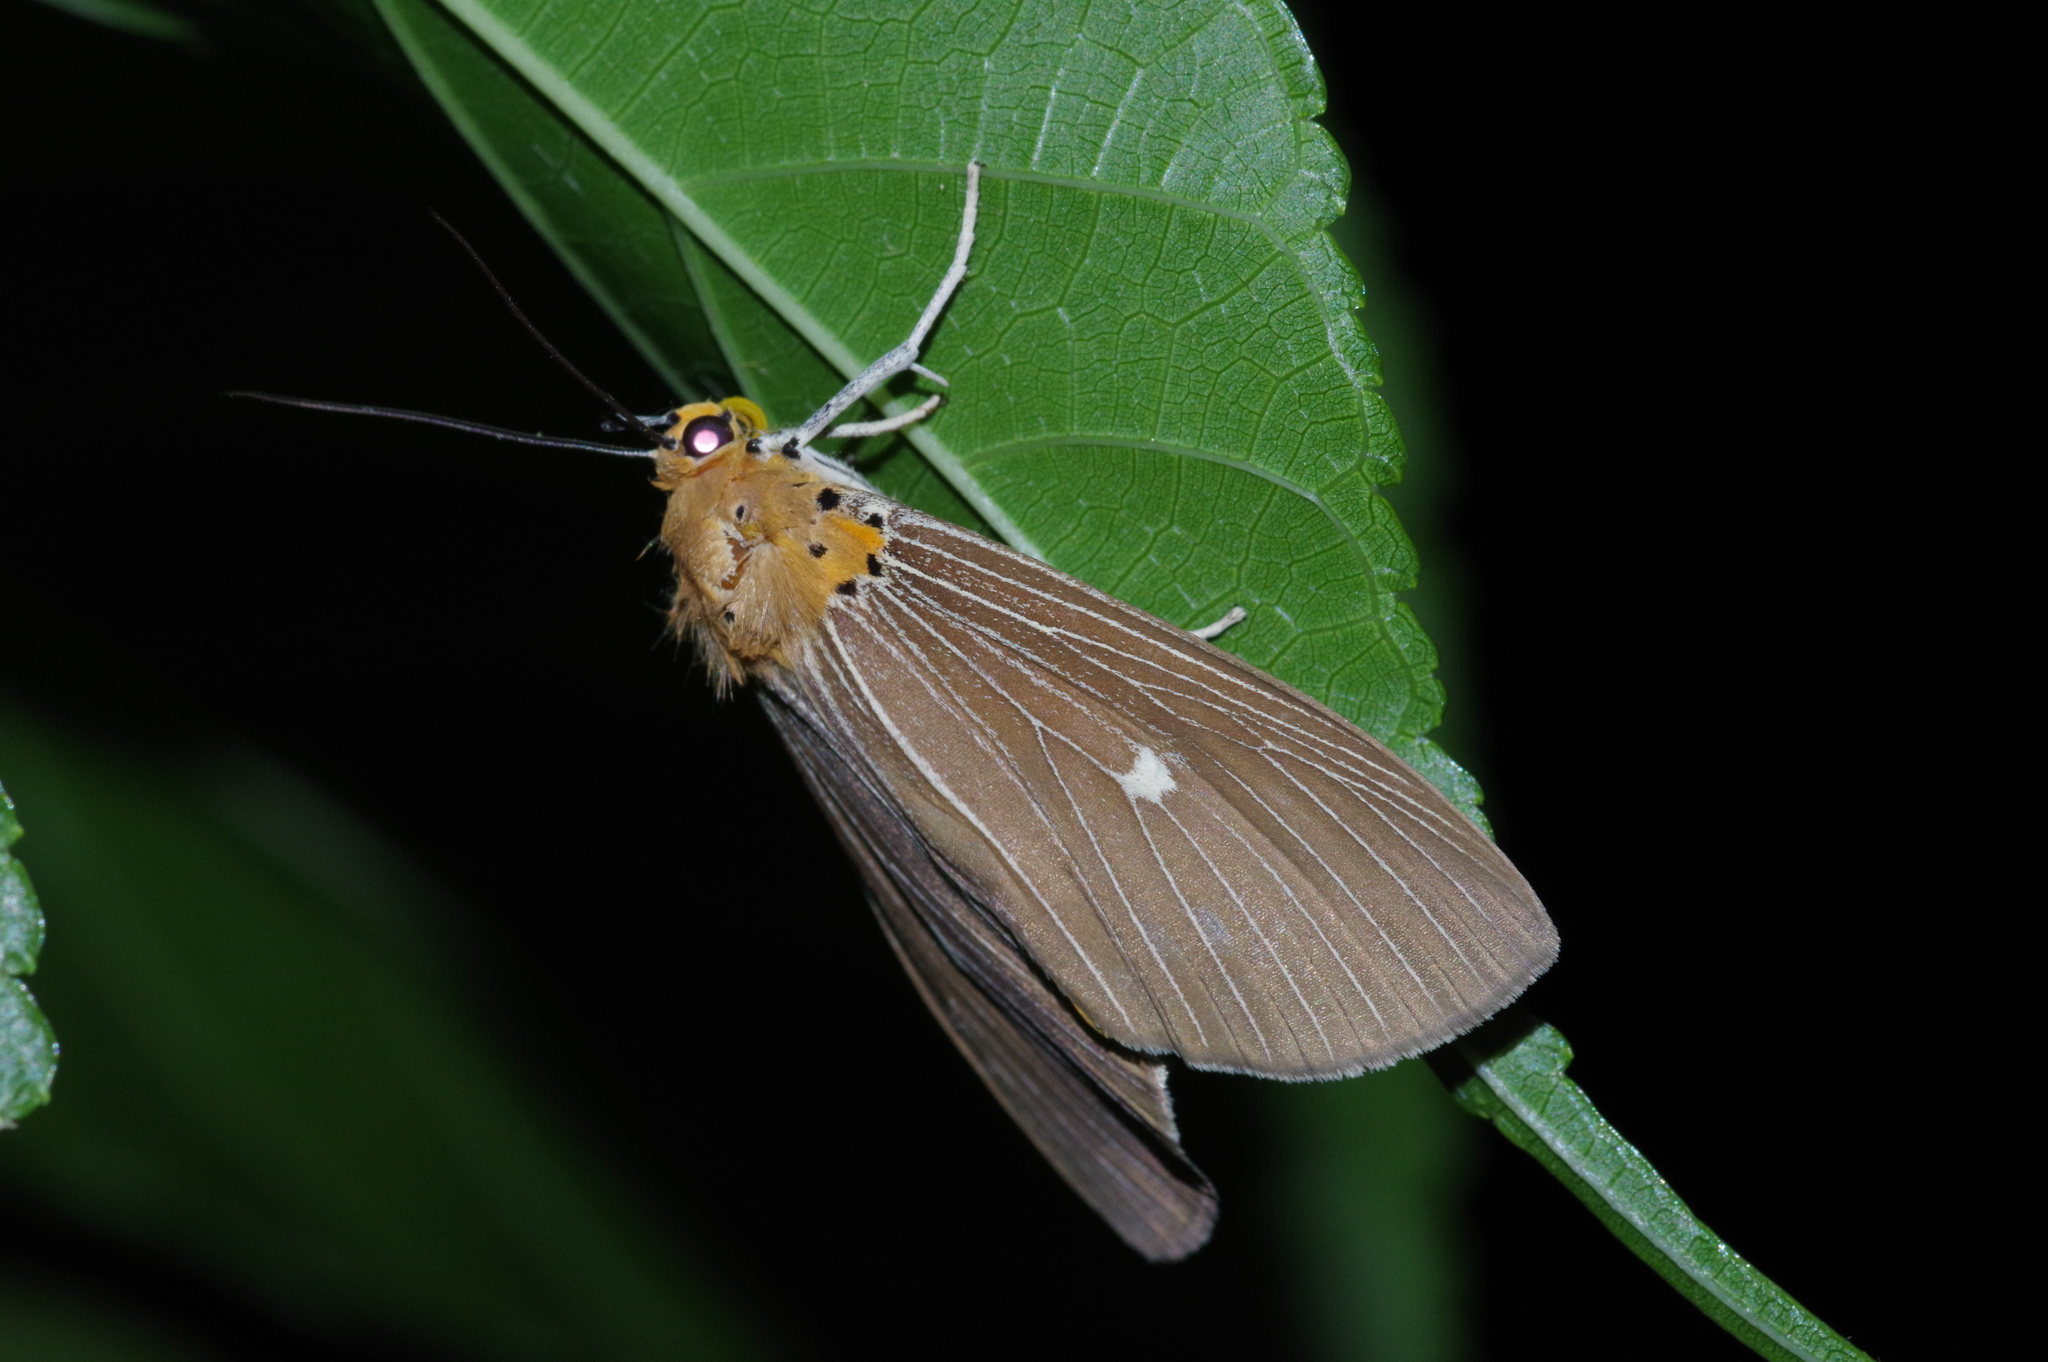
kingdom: Animalia
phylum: Arthropoda
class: Insecta
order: Lepidoptera
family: Erebidae
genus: Asota
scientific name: Asota caricae
